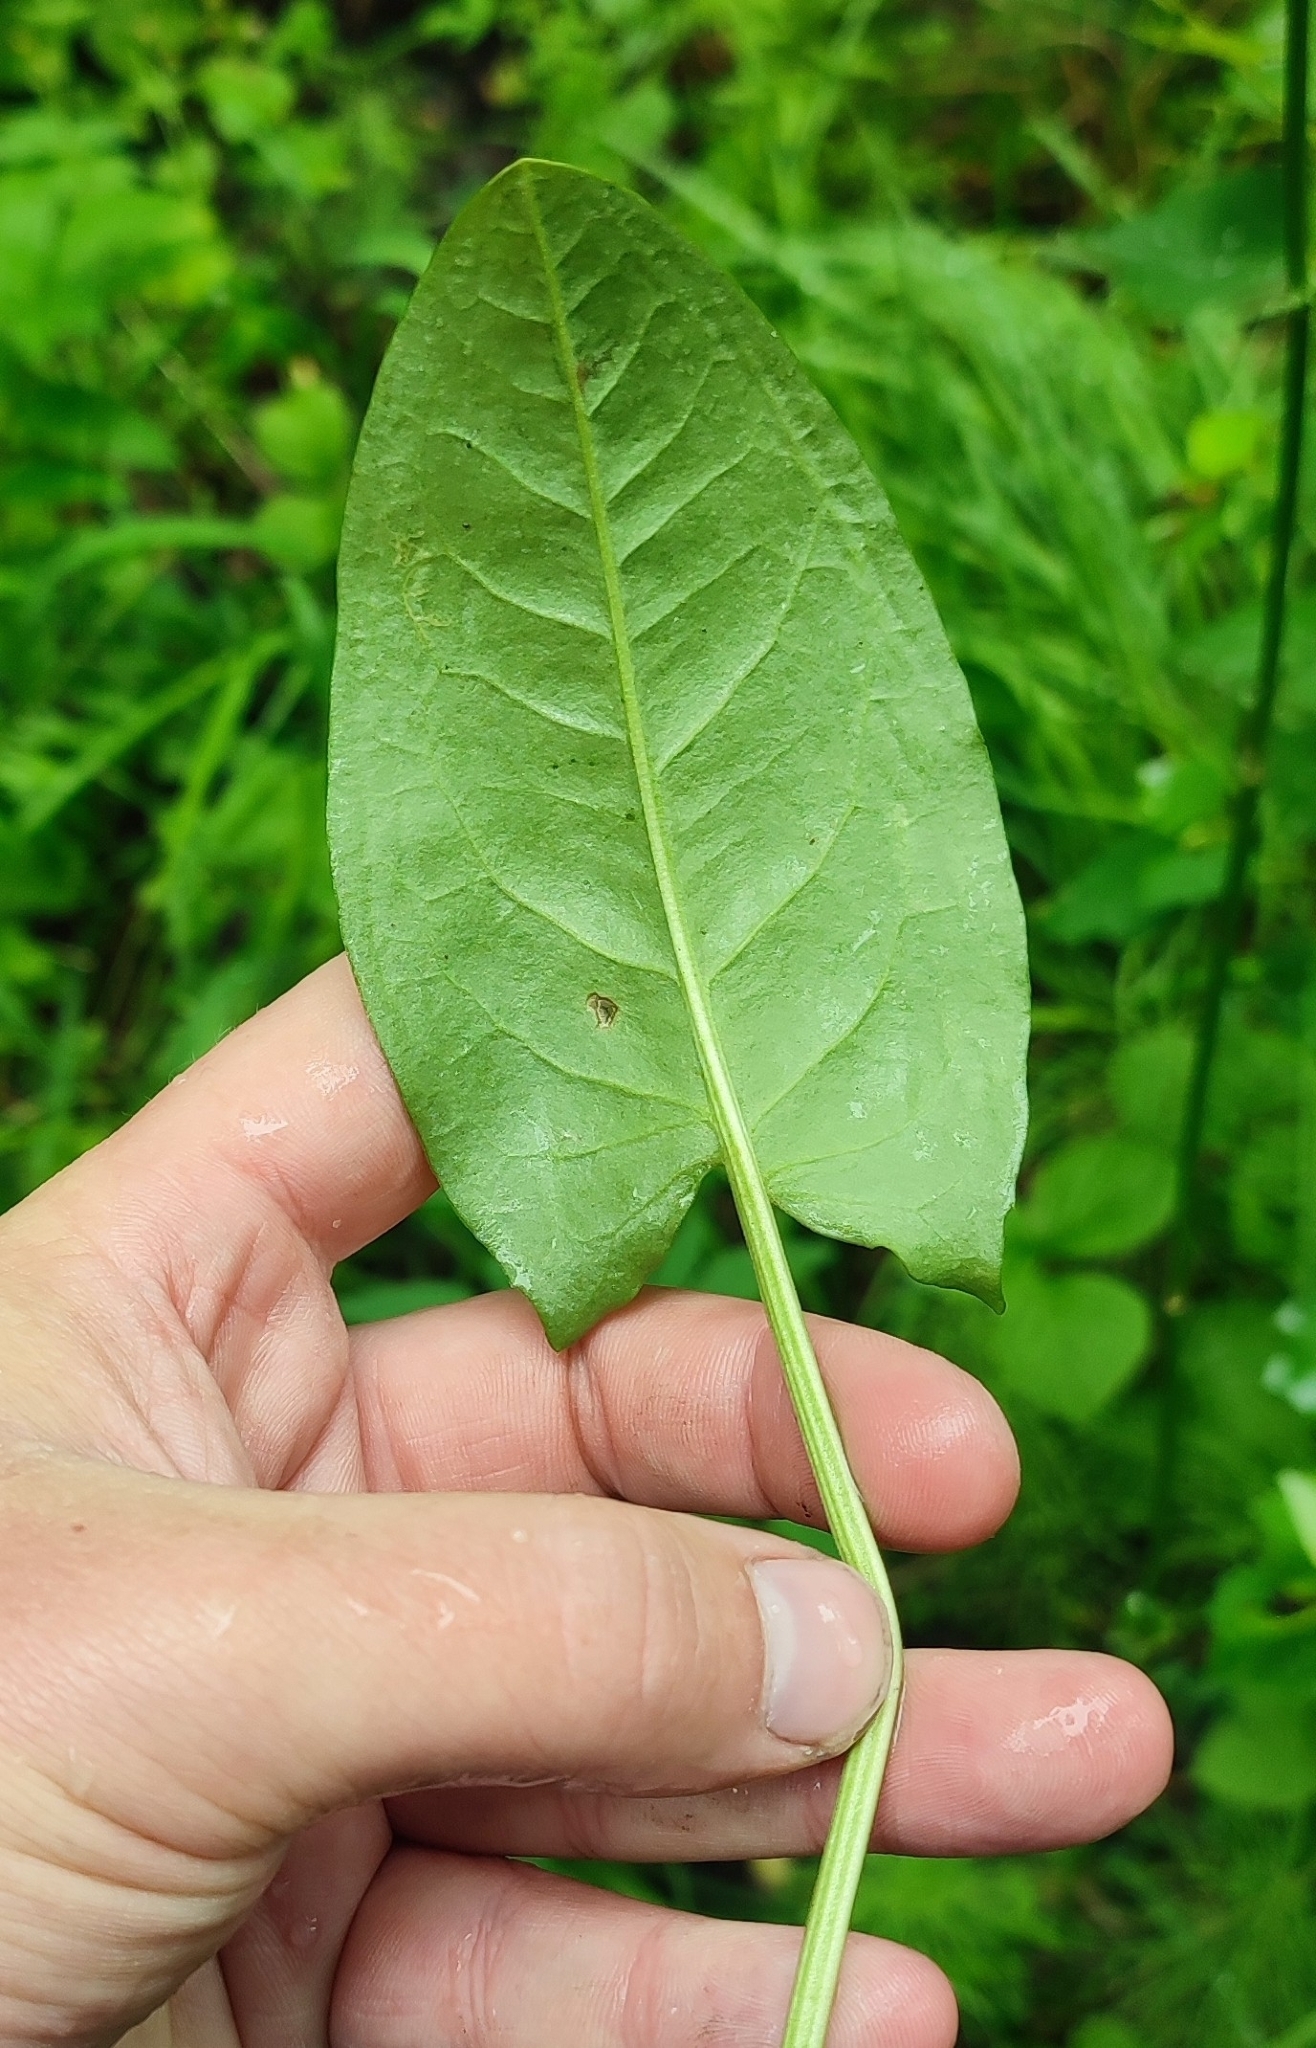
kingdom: Plantae
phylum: Tracheophyta
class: Magnoliopsida
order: Caryophyllales
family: Polygonaceae
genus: Rumex
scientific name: Rumex thyrsiflorus
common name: Garden sorrel
